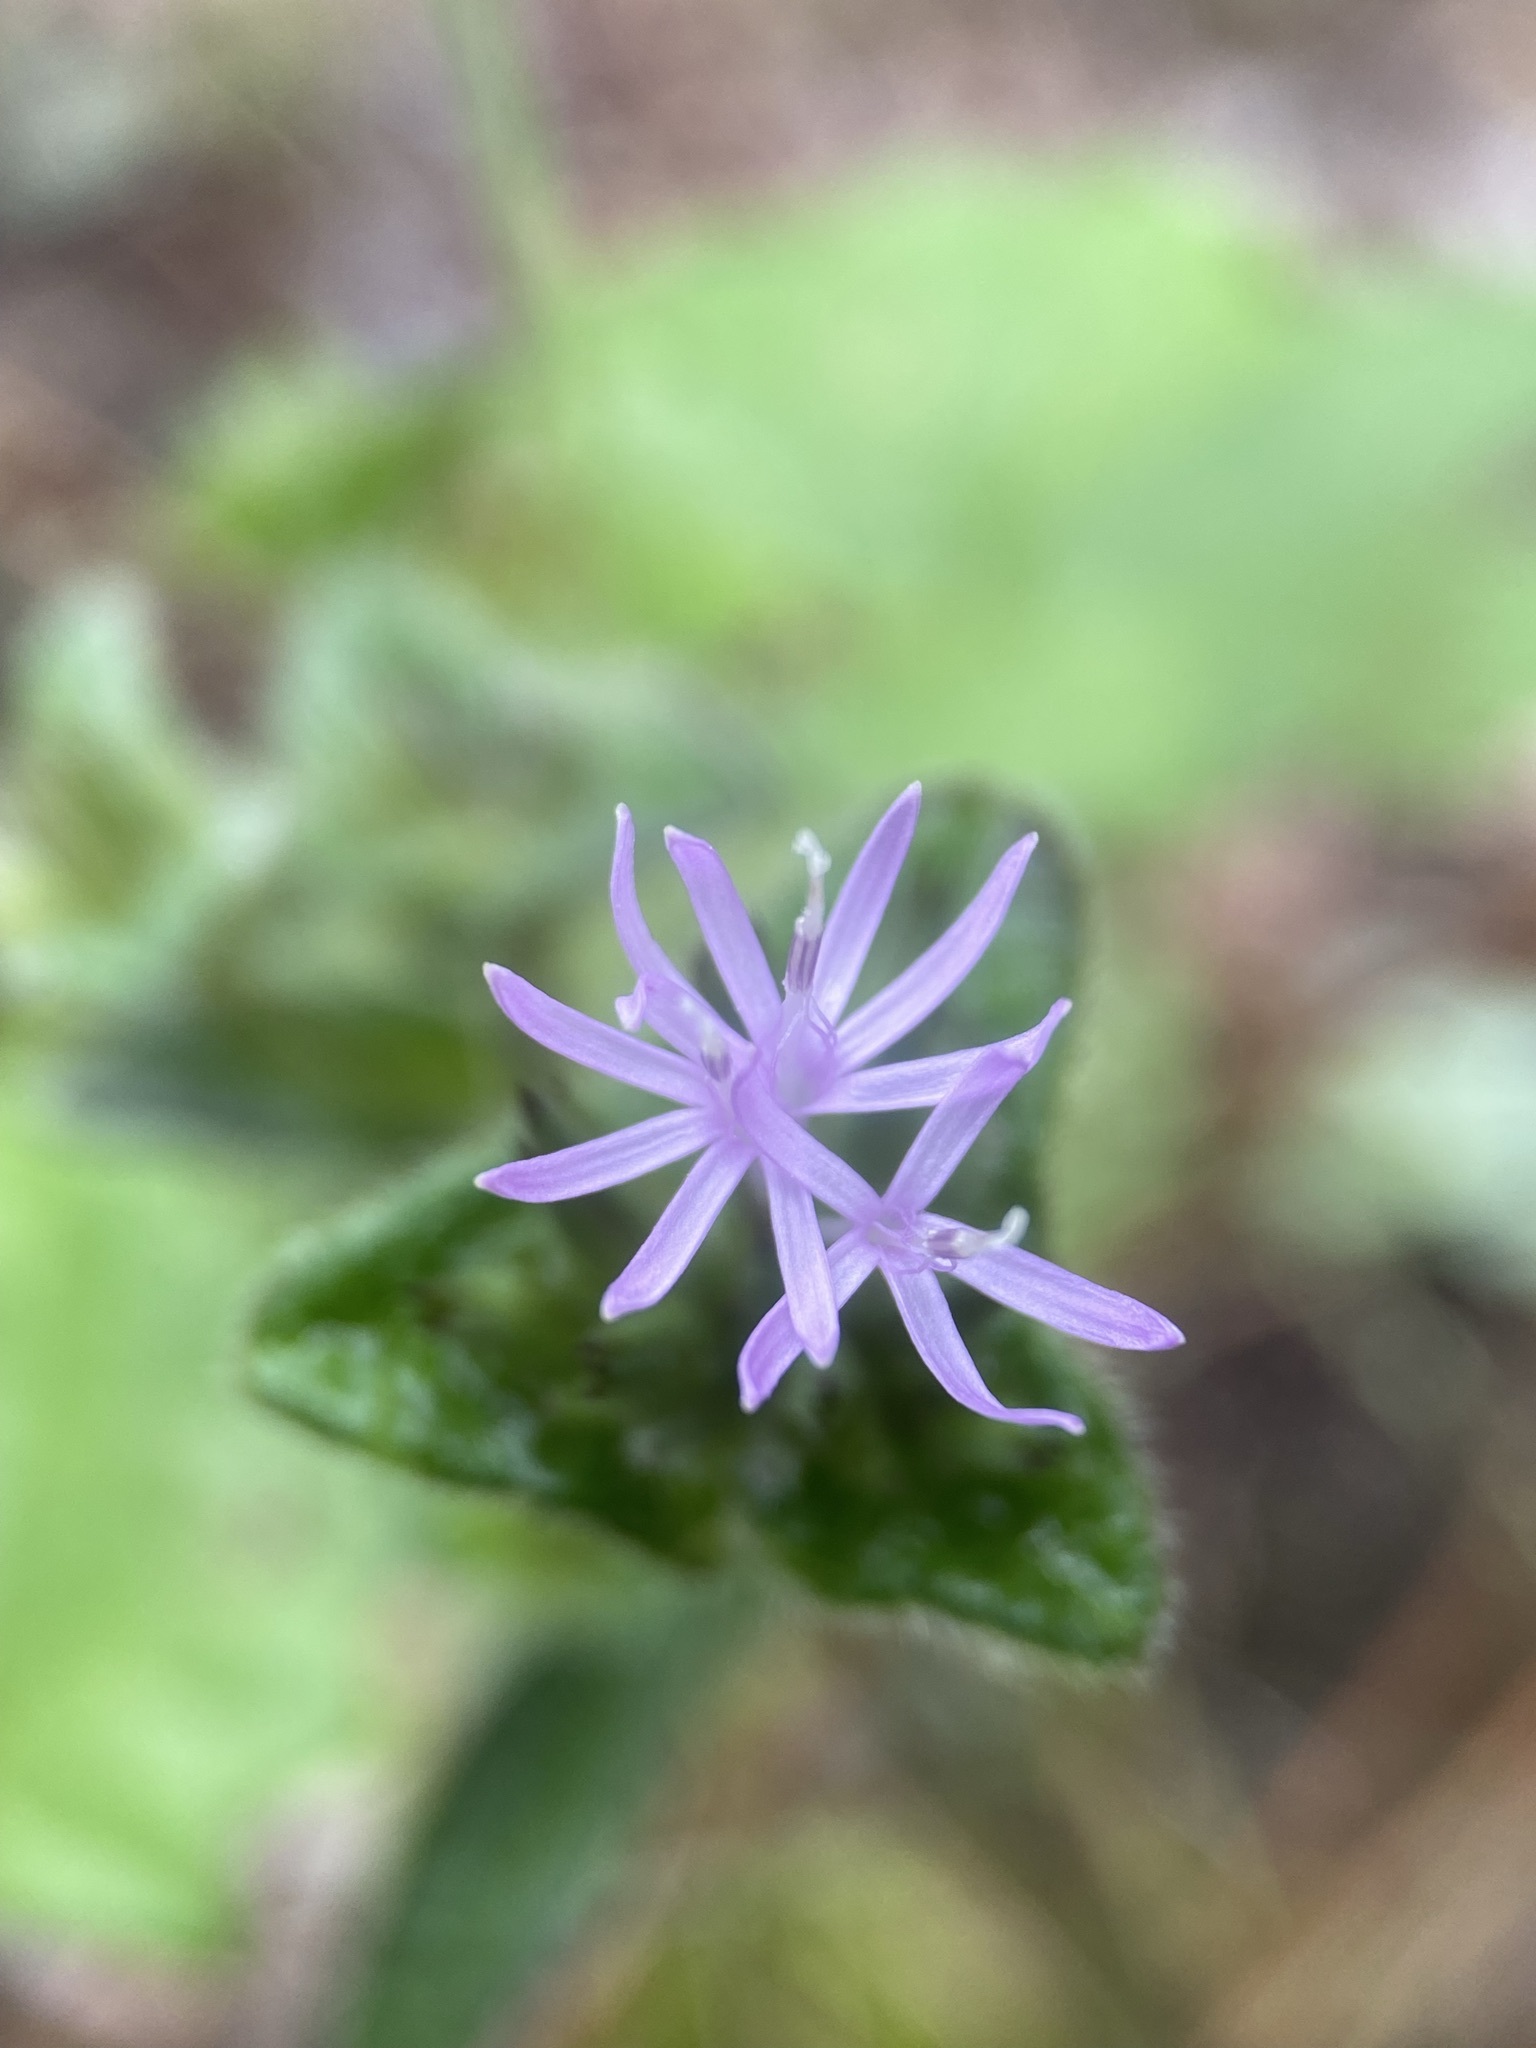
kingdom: Plantae
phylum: Tracheophyta
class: Magnoliopsida
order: Asterales
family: Asteraceae
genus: Elephantopus
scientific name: Elephantopus tomentosus
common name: Tobacco-weed
